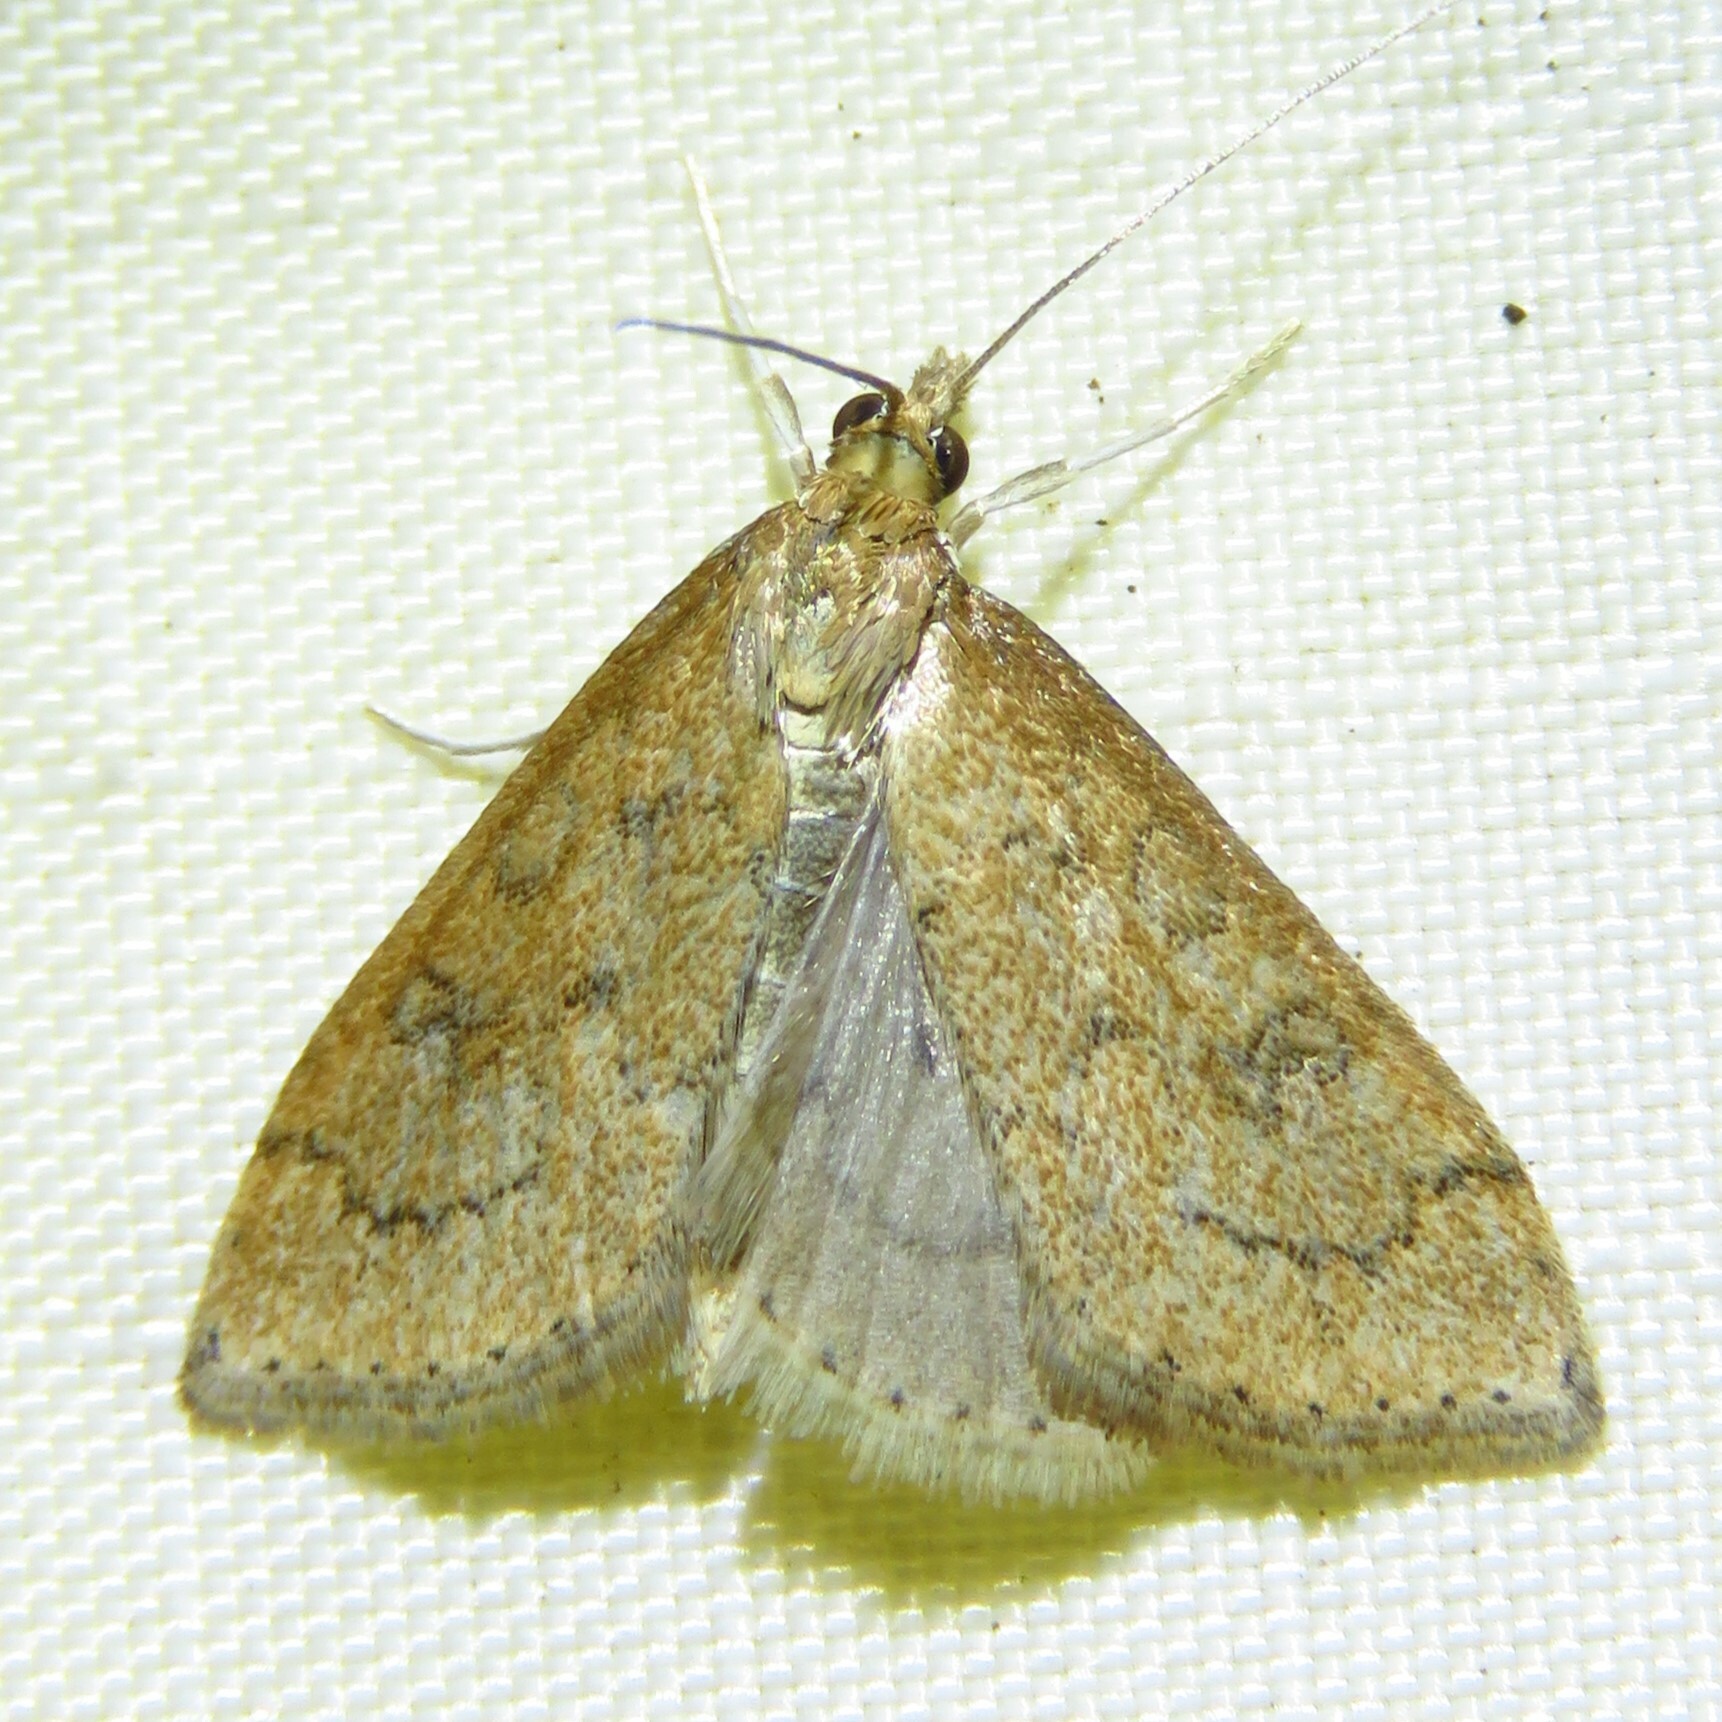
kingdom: Animalia
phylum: Arthropoda
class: Insecta
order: Lepidoptera
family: Crambidae
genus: Udea
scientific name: Udea rubigalis
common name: Celery leaftier moth
